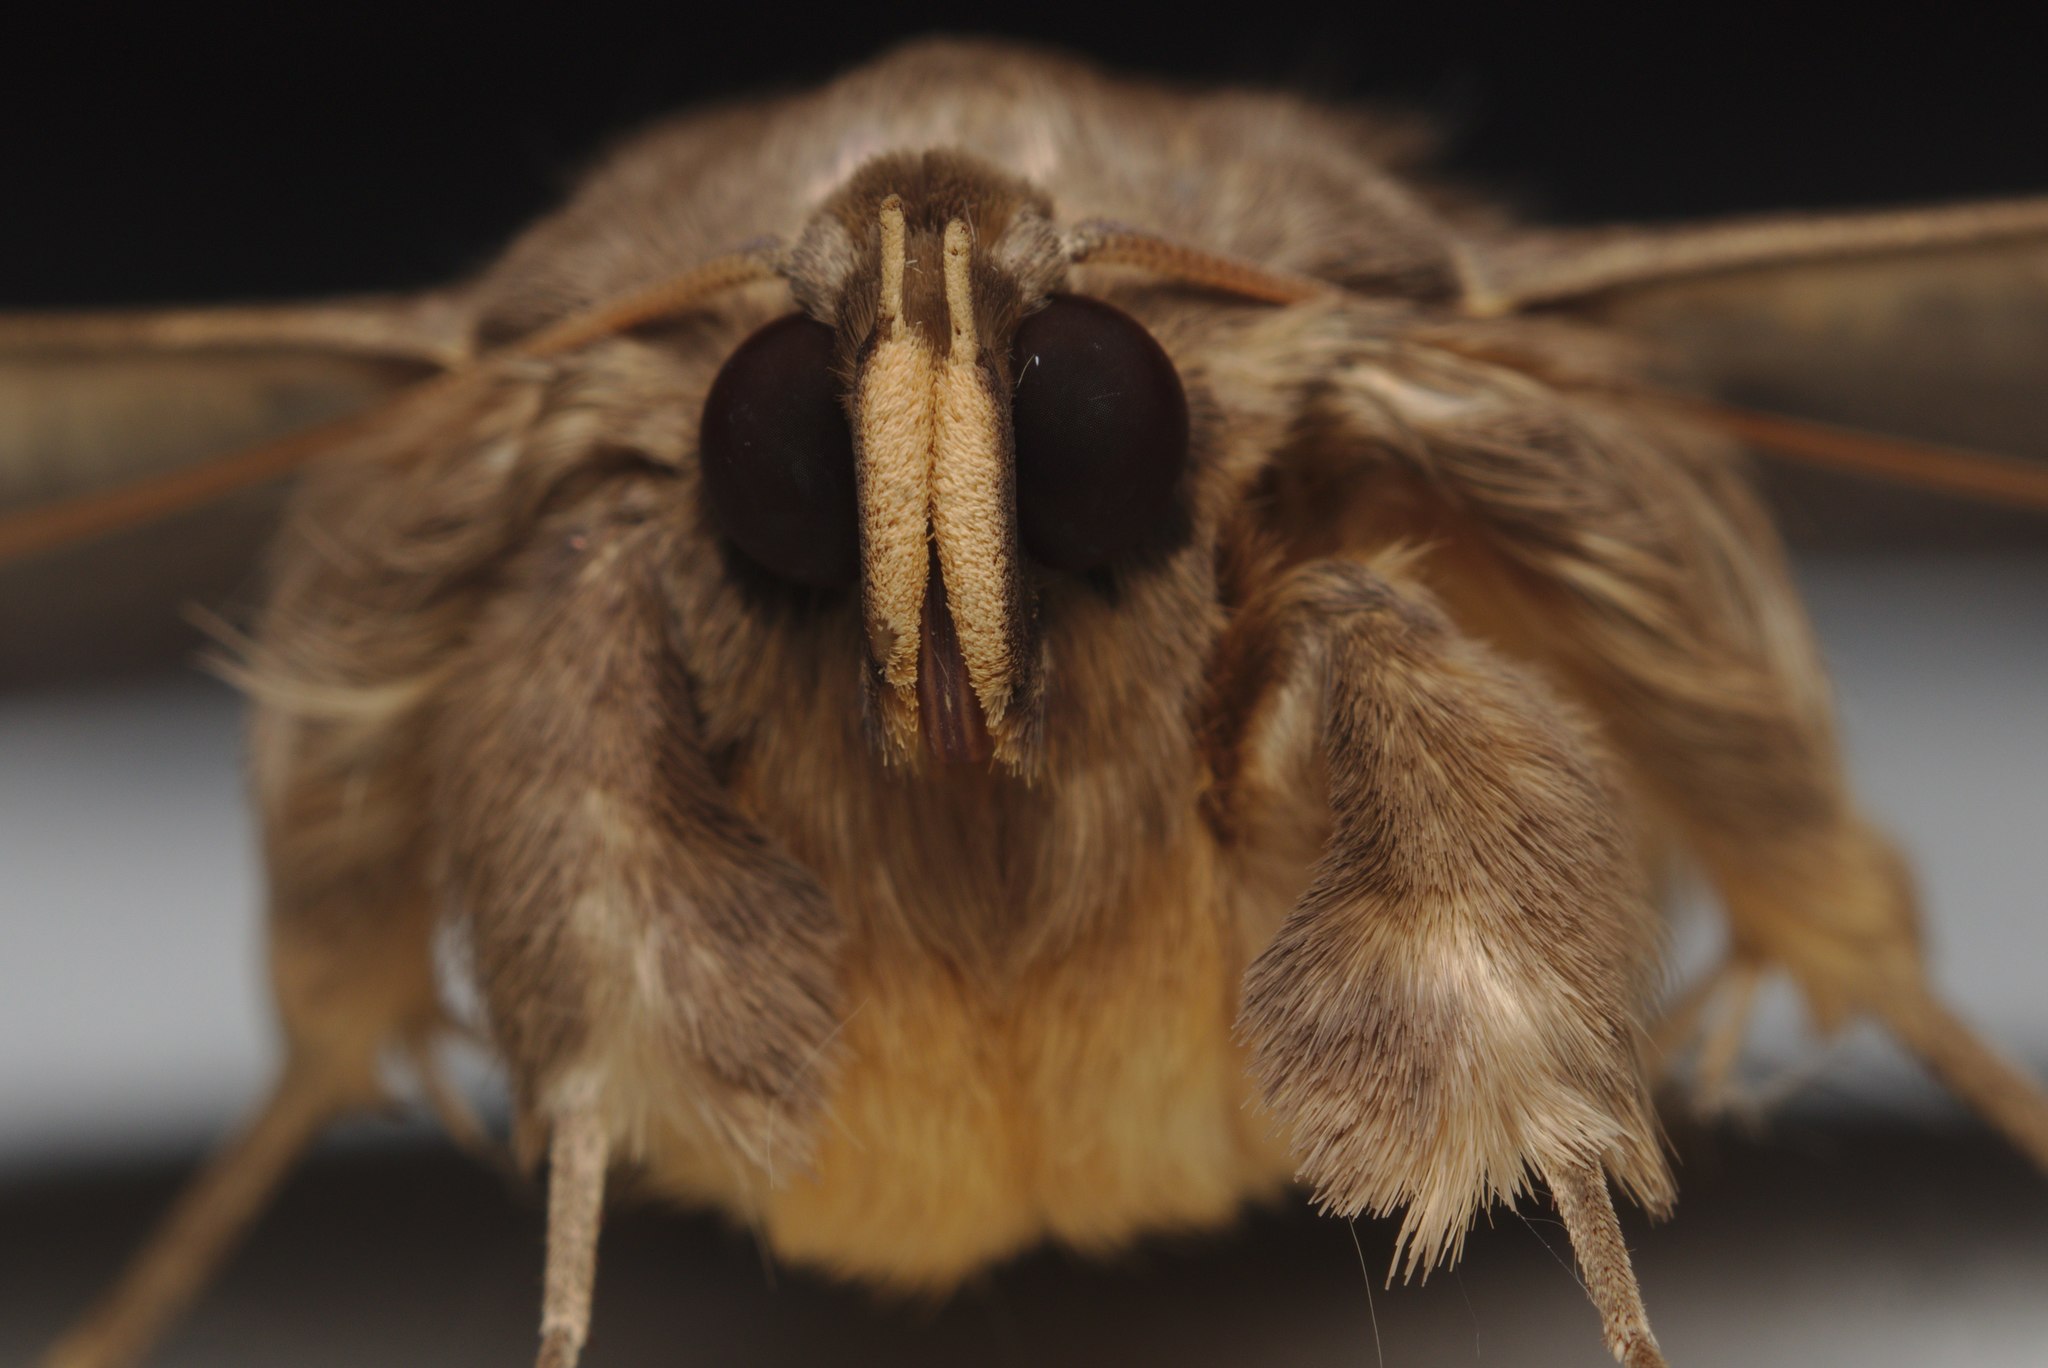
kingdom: Animalia
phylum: Arthropoda
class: Insecta
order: Lepidoptera
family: Erebidae
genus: Dasypodia
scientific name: Dasypodia cymatodes
